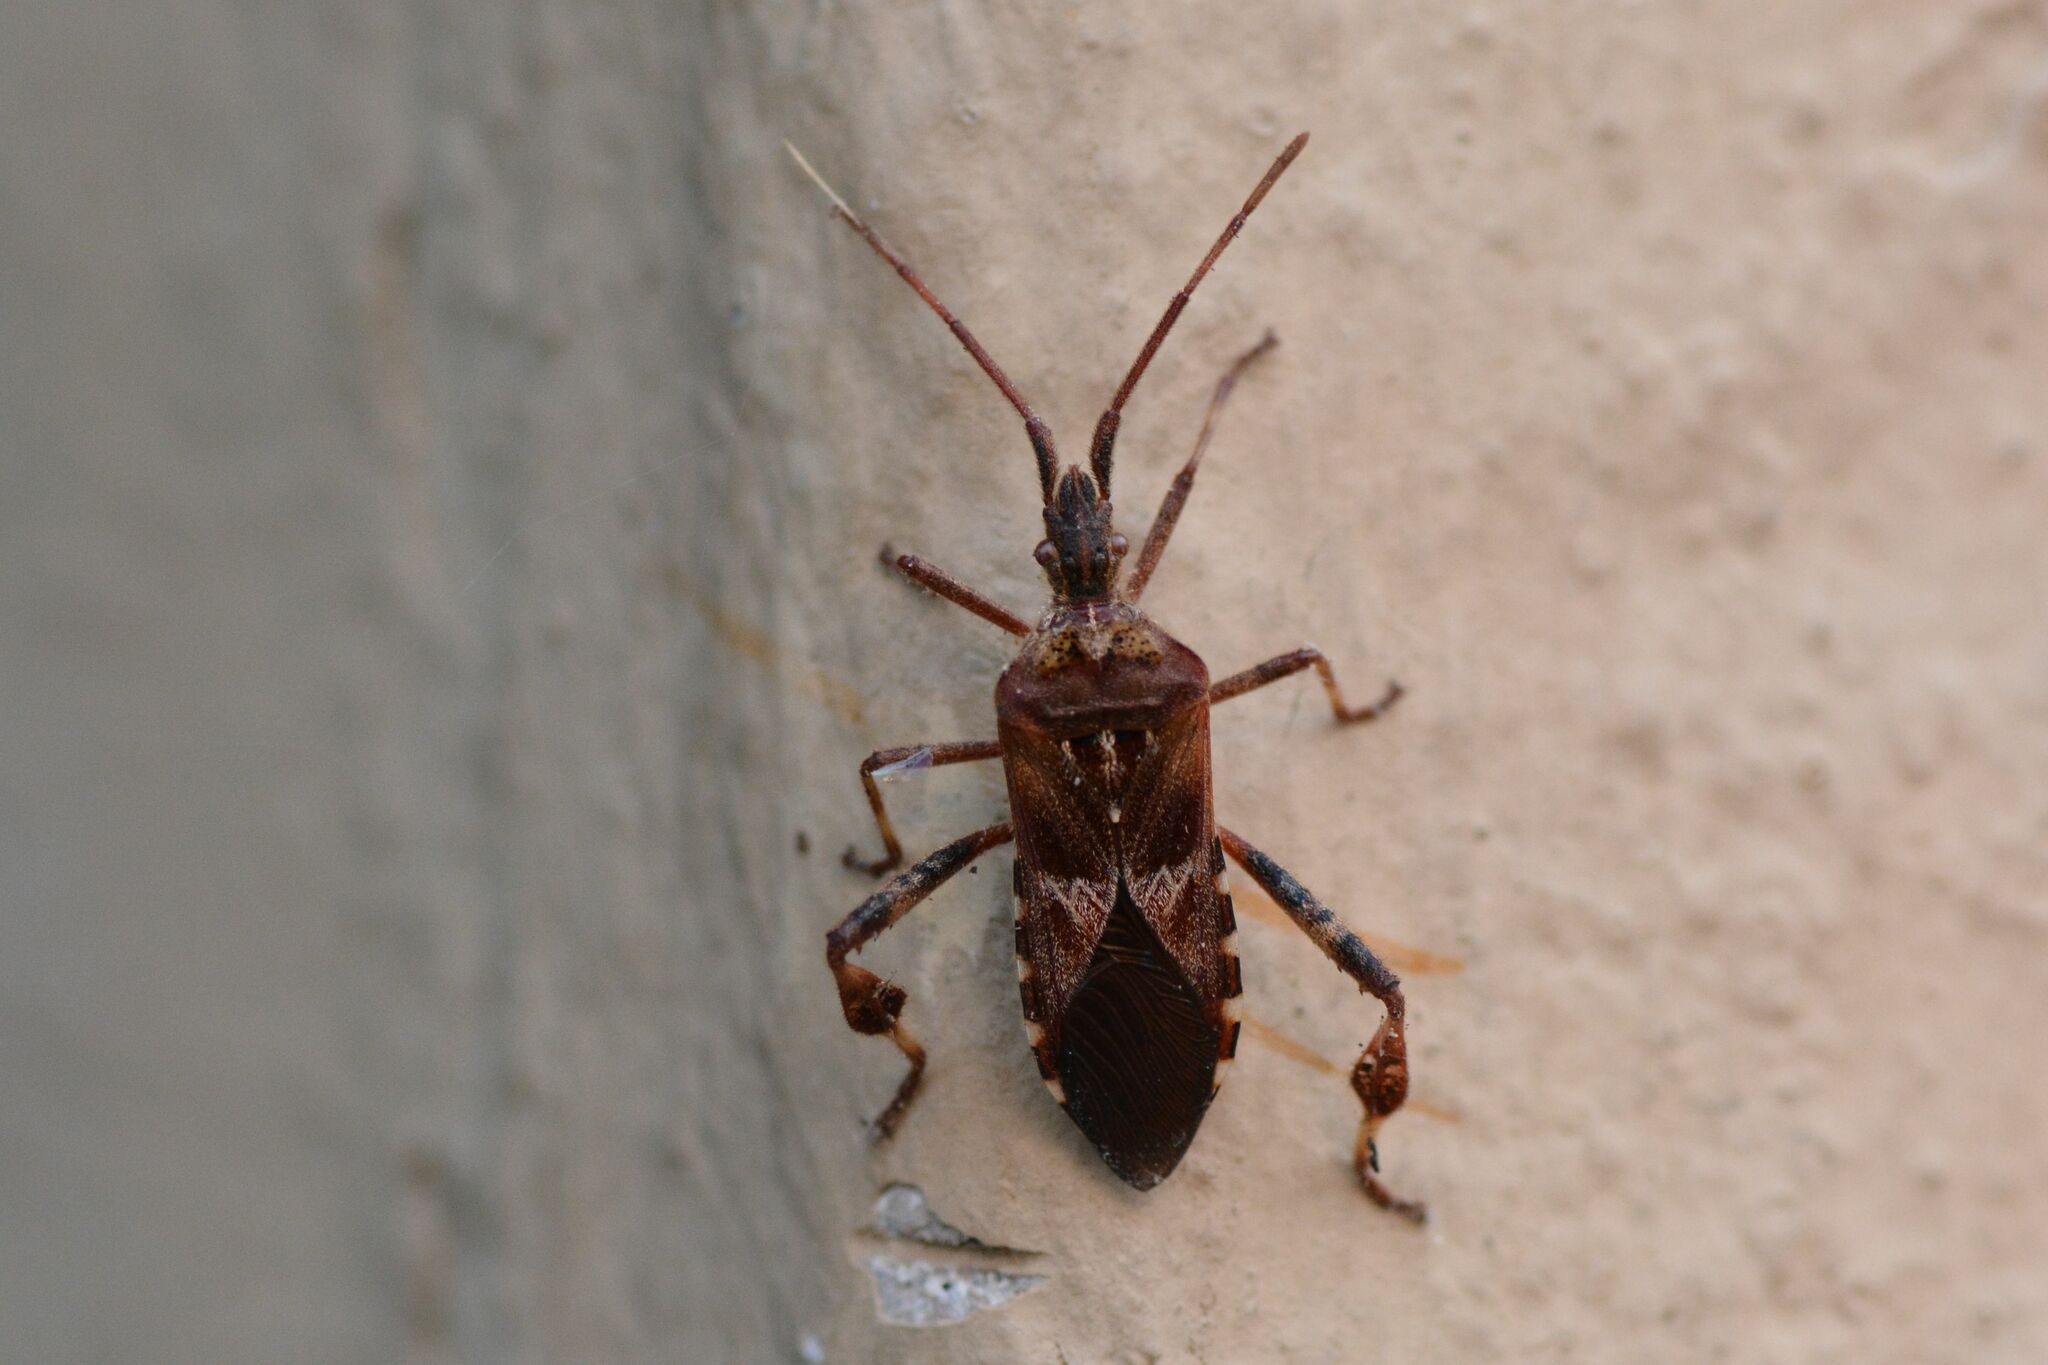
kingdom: Animalia
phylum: Arthropoda
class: Insecta
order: Hemiptera
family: Coreidae
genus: Leptoglossus
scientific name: Leptoglossus occidentalis
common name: Western conifer-seed bug
